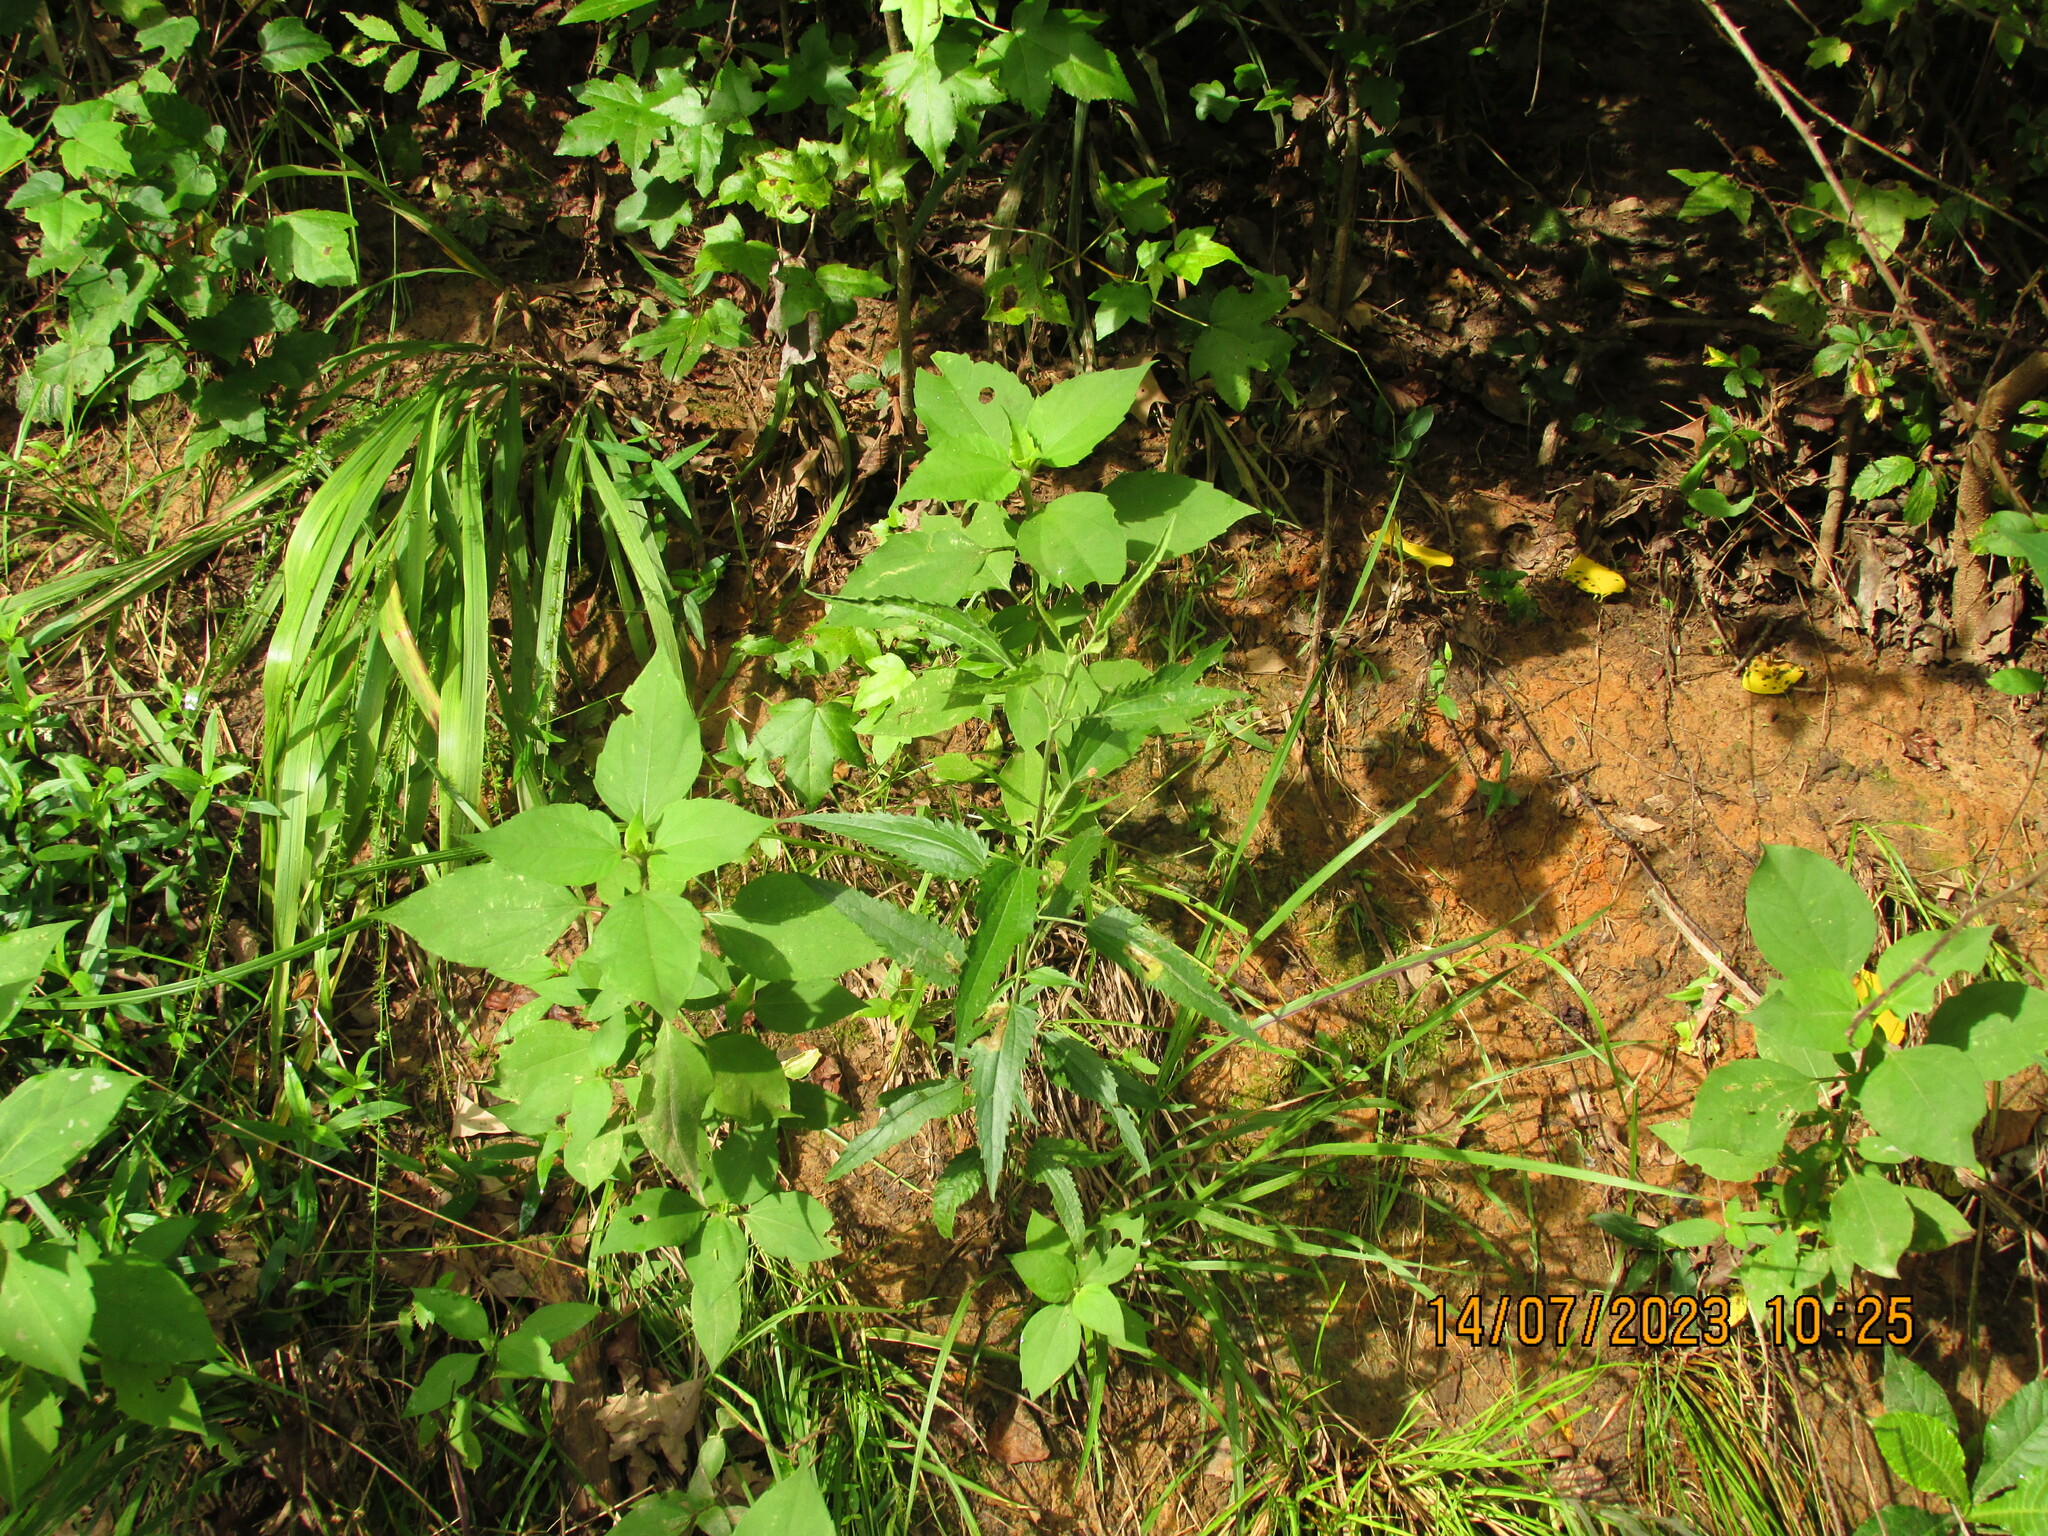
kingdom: Plantae
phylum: Tracheophyta
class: Magnoliopsida
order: Asterales
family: Asteraceae
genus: Eupatorium
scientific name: Eupatorium serotinum
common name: Late boneset
